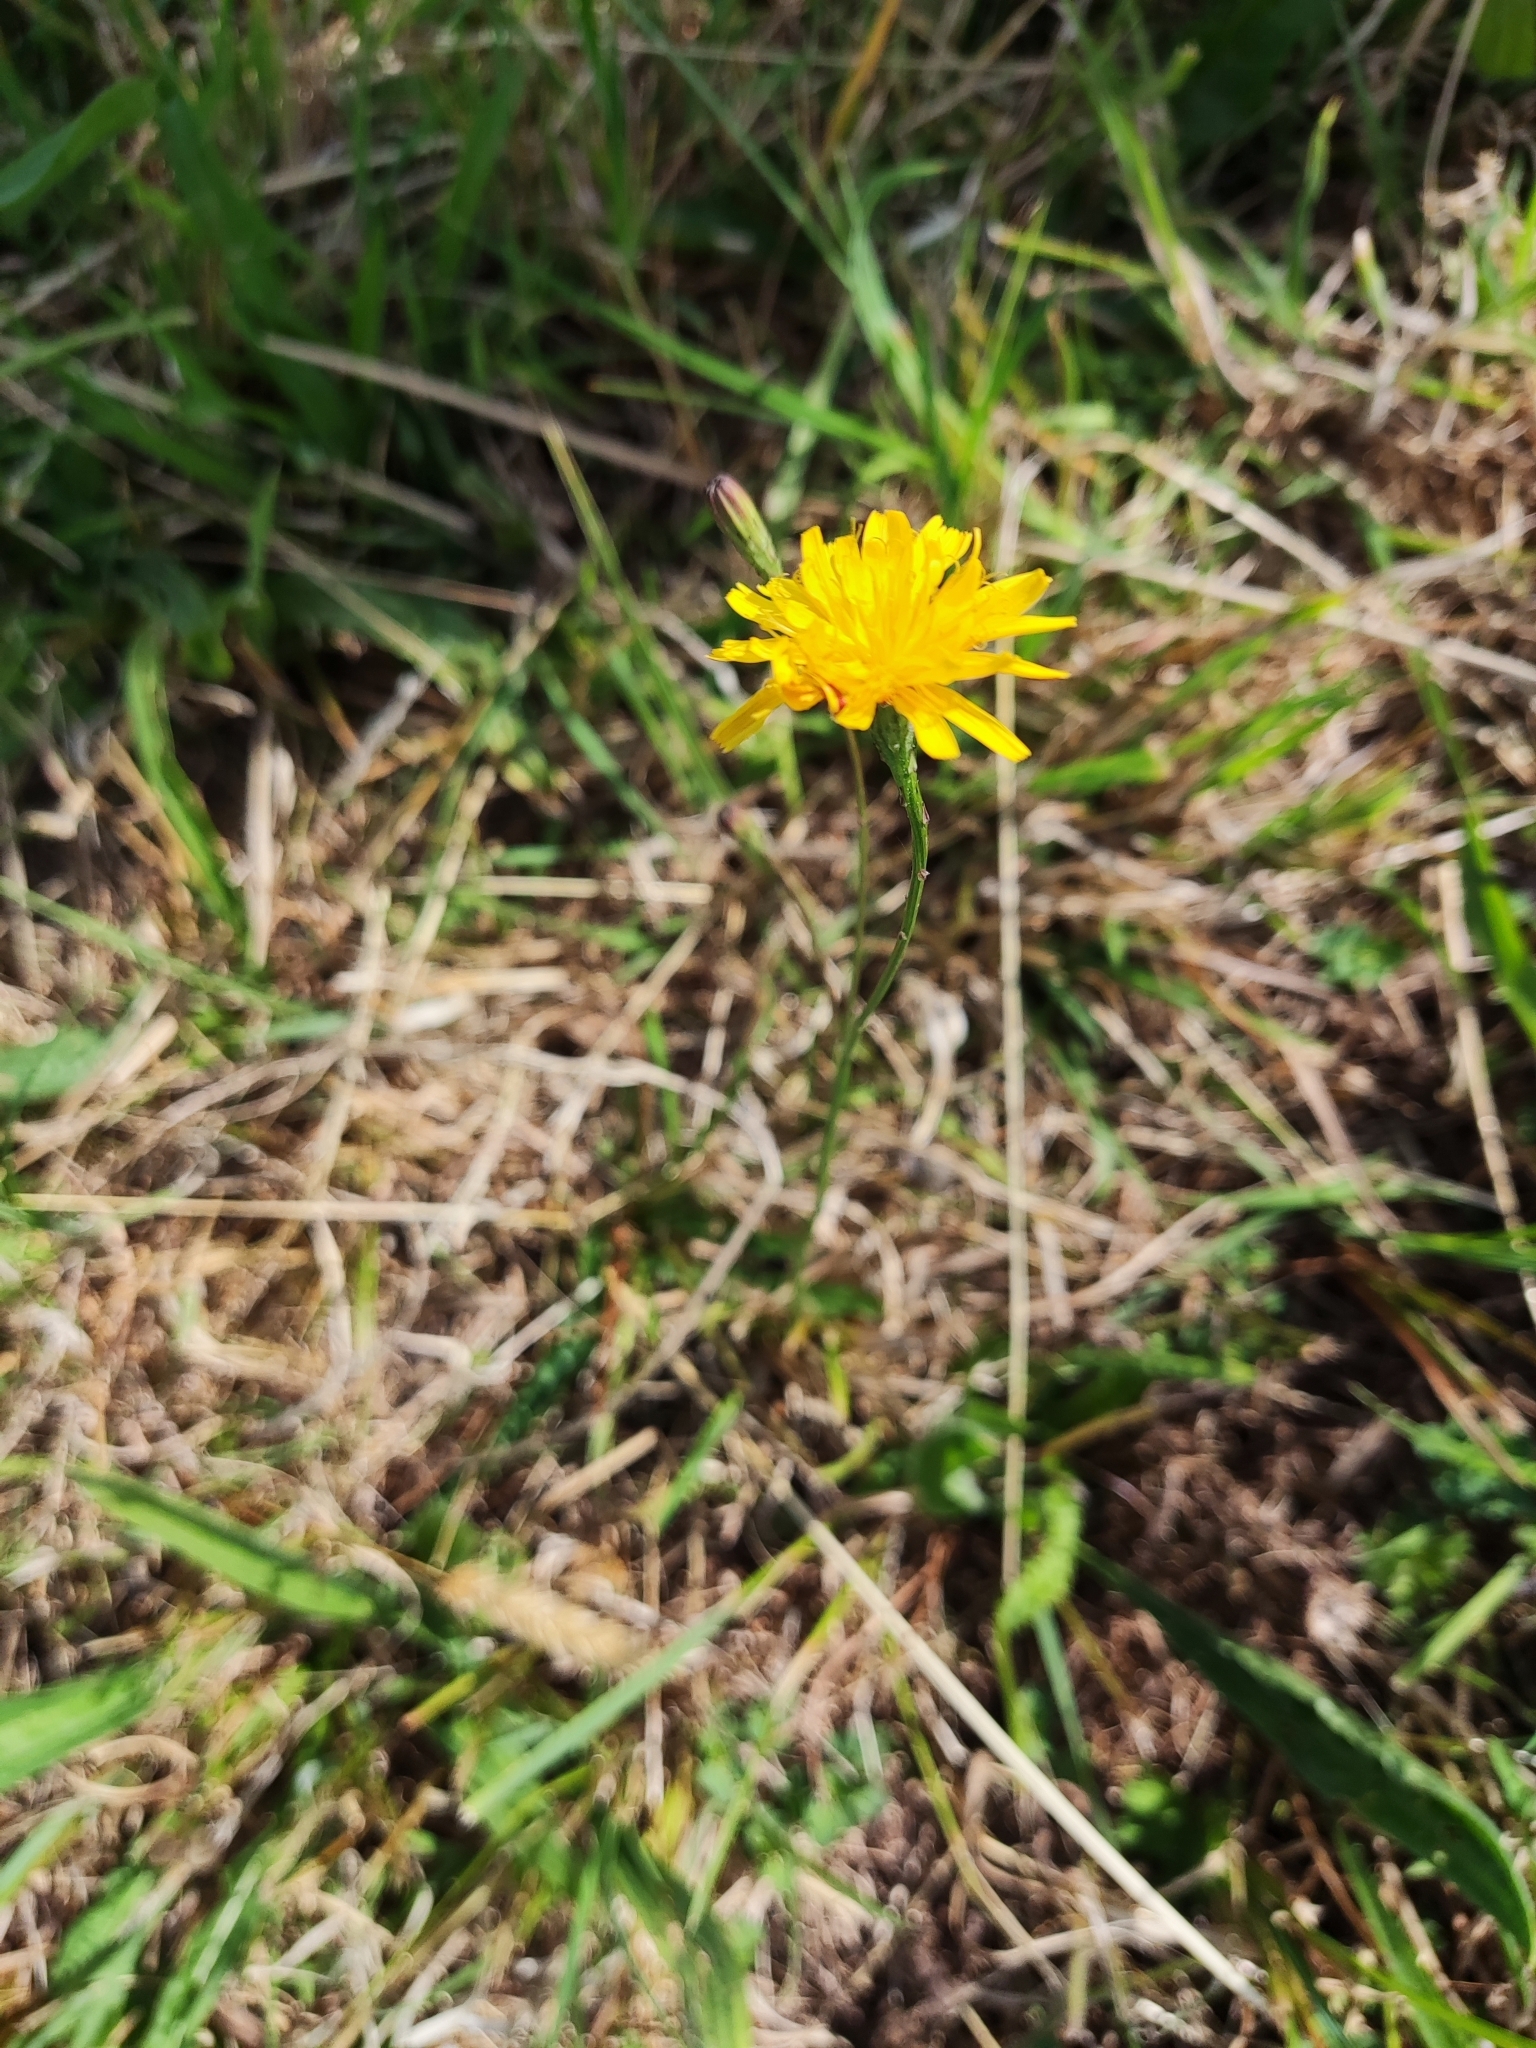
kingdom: Plantae
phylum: Tracheophyta
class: Magnoliopsida
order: Asterales
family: Asteraceae
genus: Scorzoneroides
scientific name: Scorzoneroides autumnalis
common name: Autumn hawkbit
